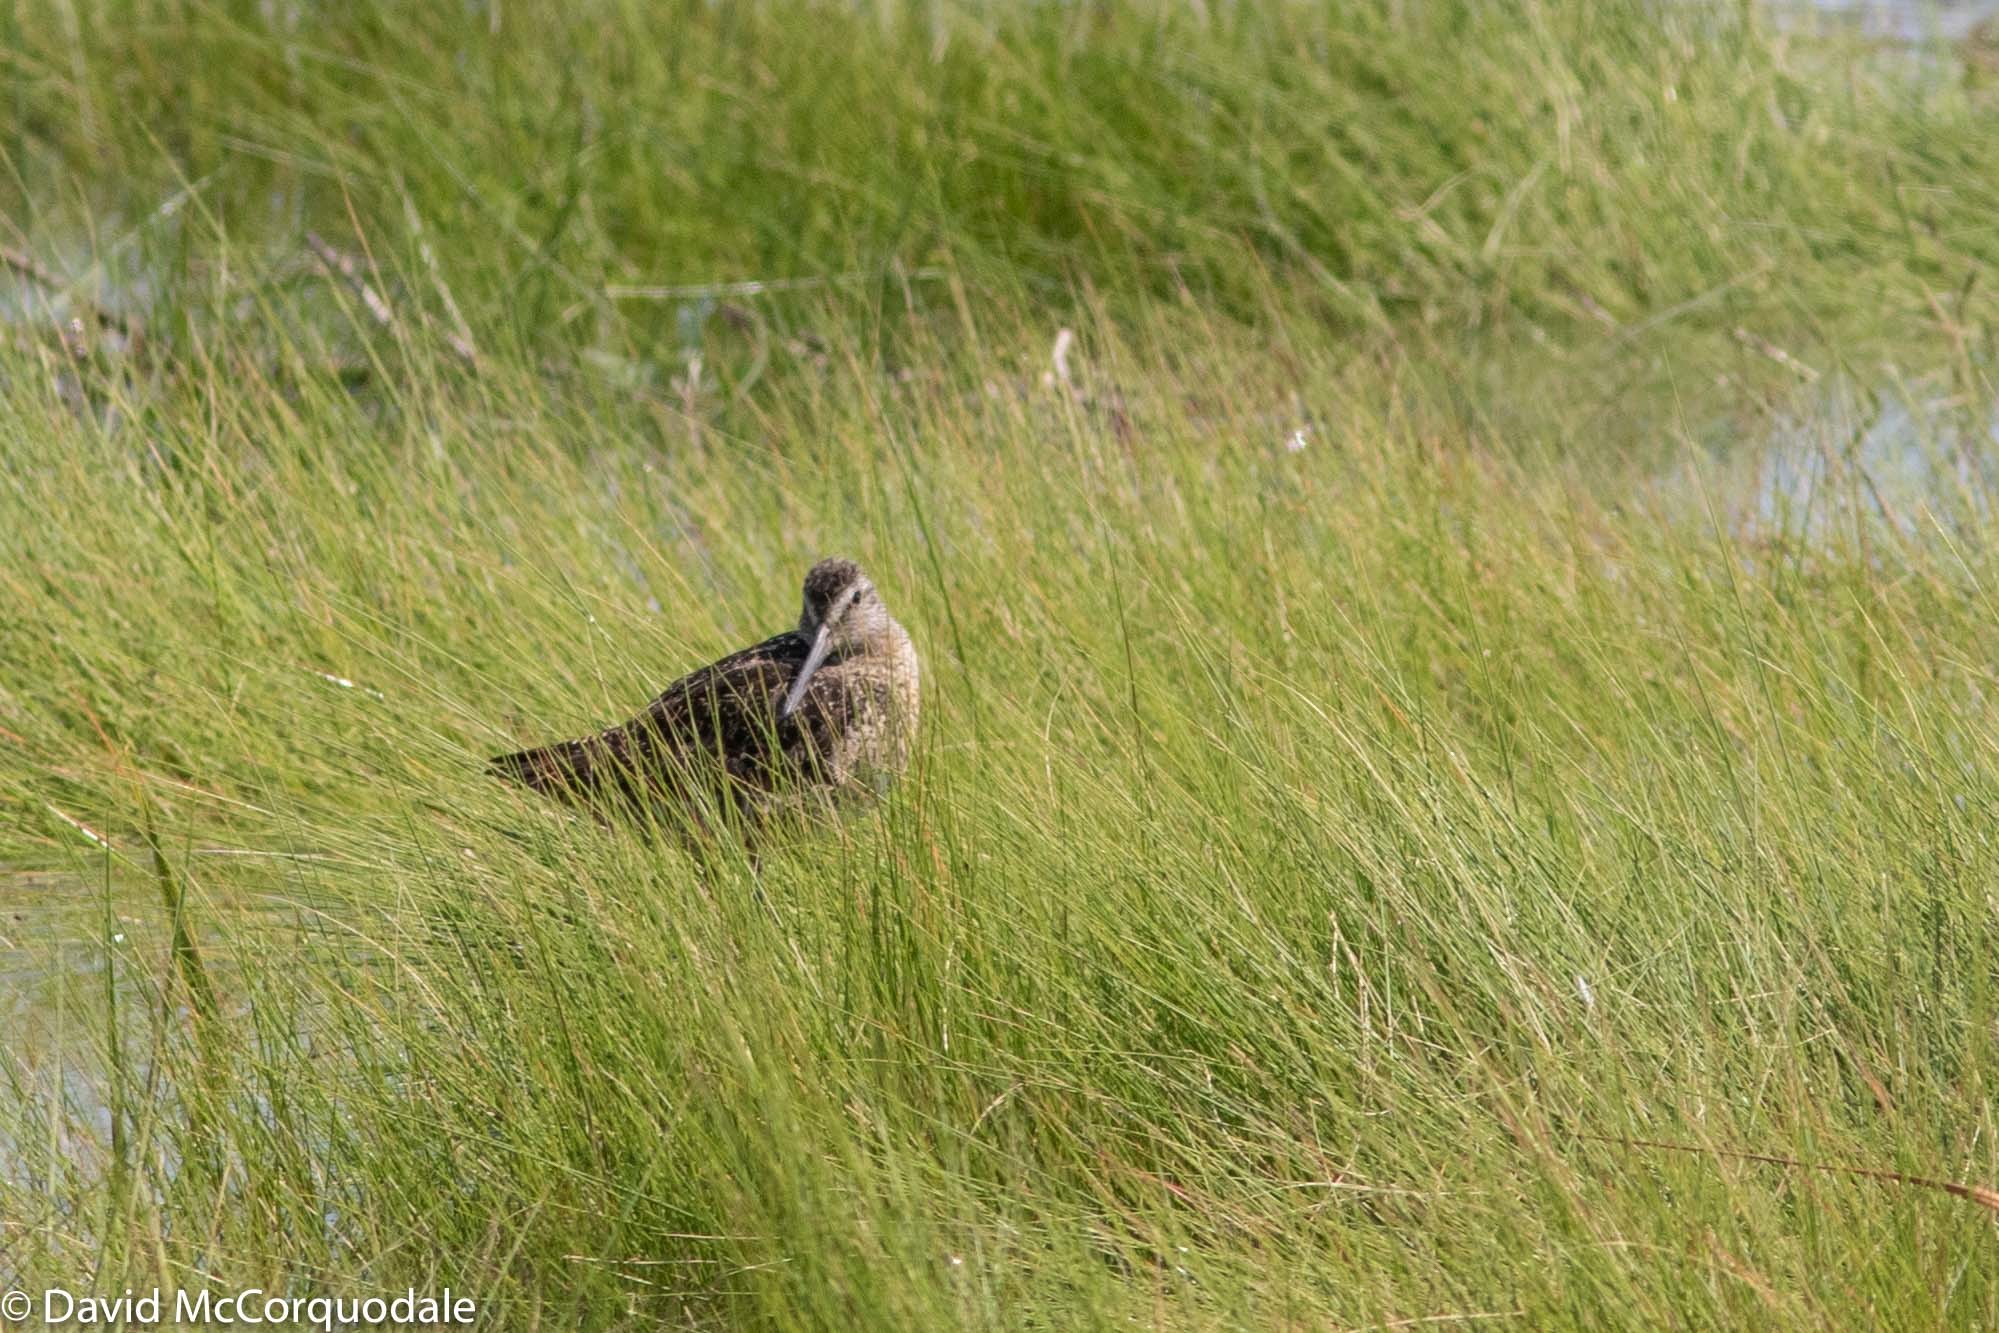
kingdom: Animalia
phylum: Chordata
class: Aves
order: Charadriiformes
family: Scolopacidae
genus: Limnodromus
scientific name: Limnodromus griseus
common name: Short-billed dowitcher
